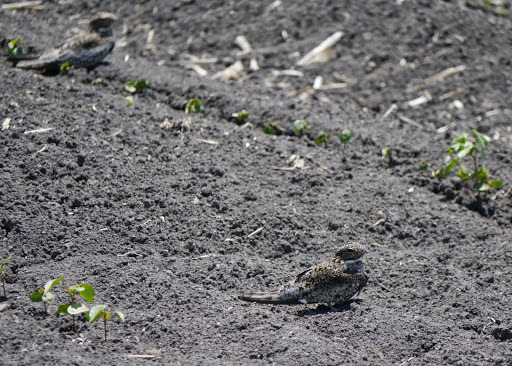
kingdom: Animalia
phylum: Chordata
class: Aves
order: Caprimulgiformes
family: Caprimulgidae
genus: Chordeiles
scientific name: Chordeiles minor
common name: Common nighthawk
